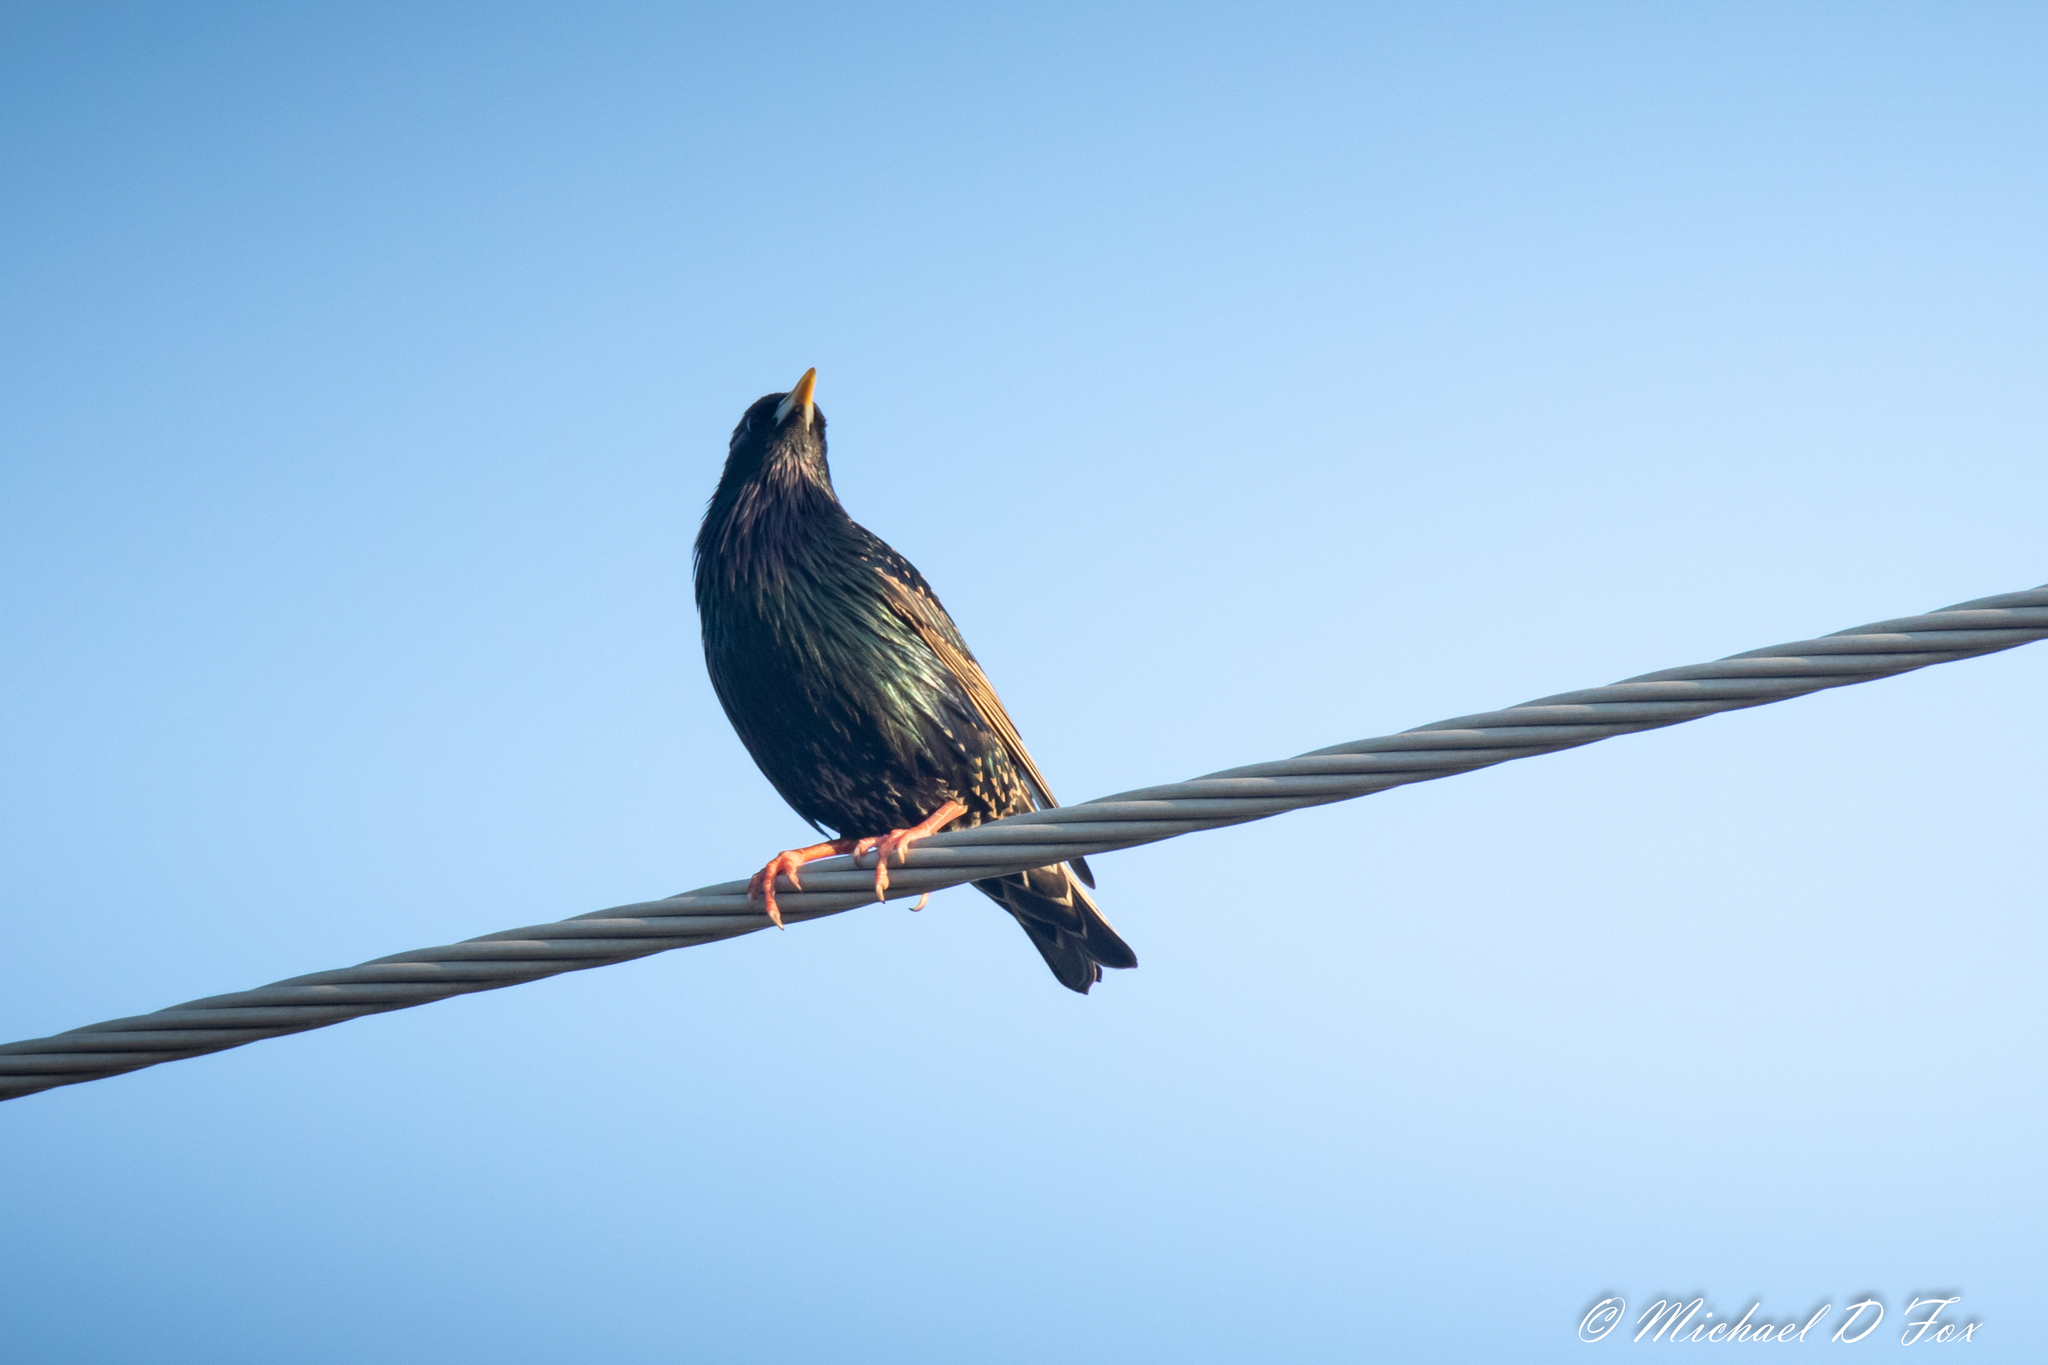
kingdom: Animalia
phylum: Chordata
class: Aves
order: Passeriformes
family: Sturnidae
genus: Sturnus
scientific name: Sturnus vulgaris
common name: Common starling
